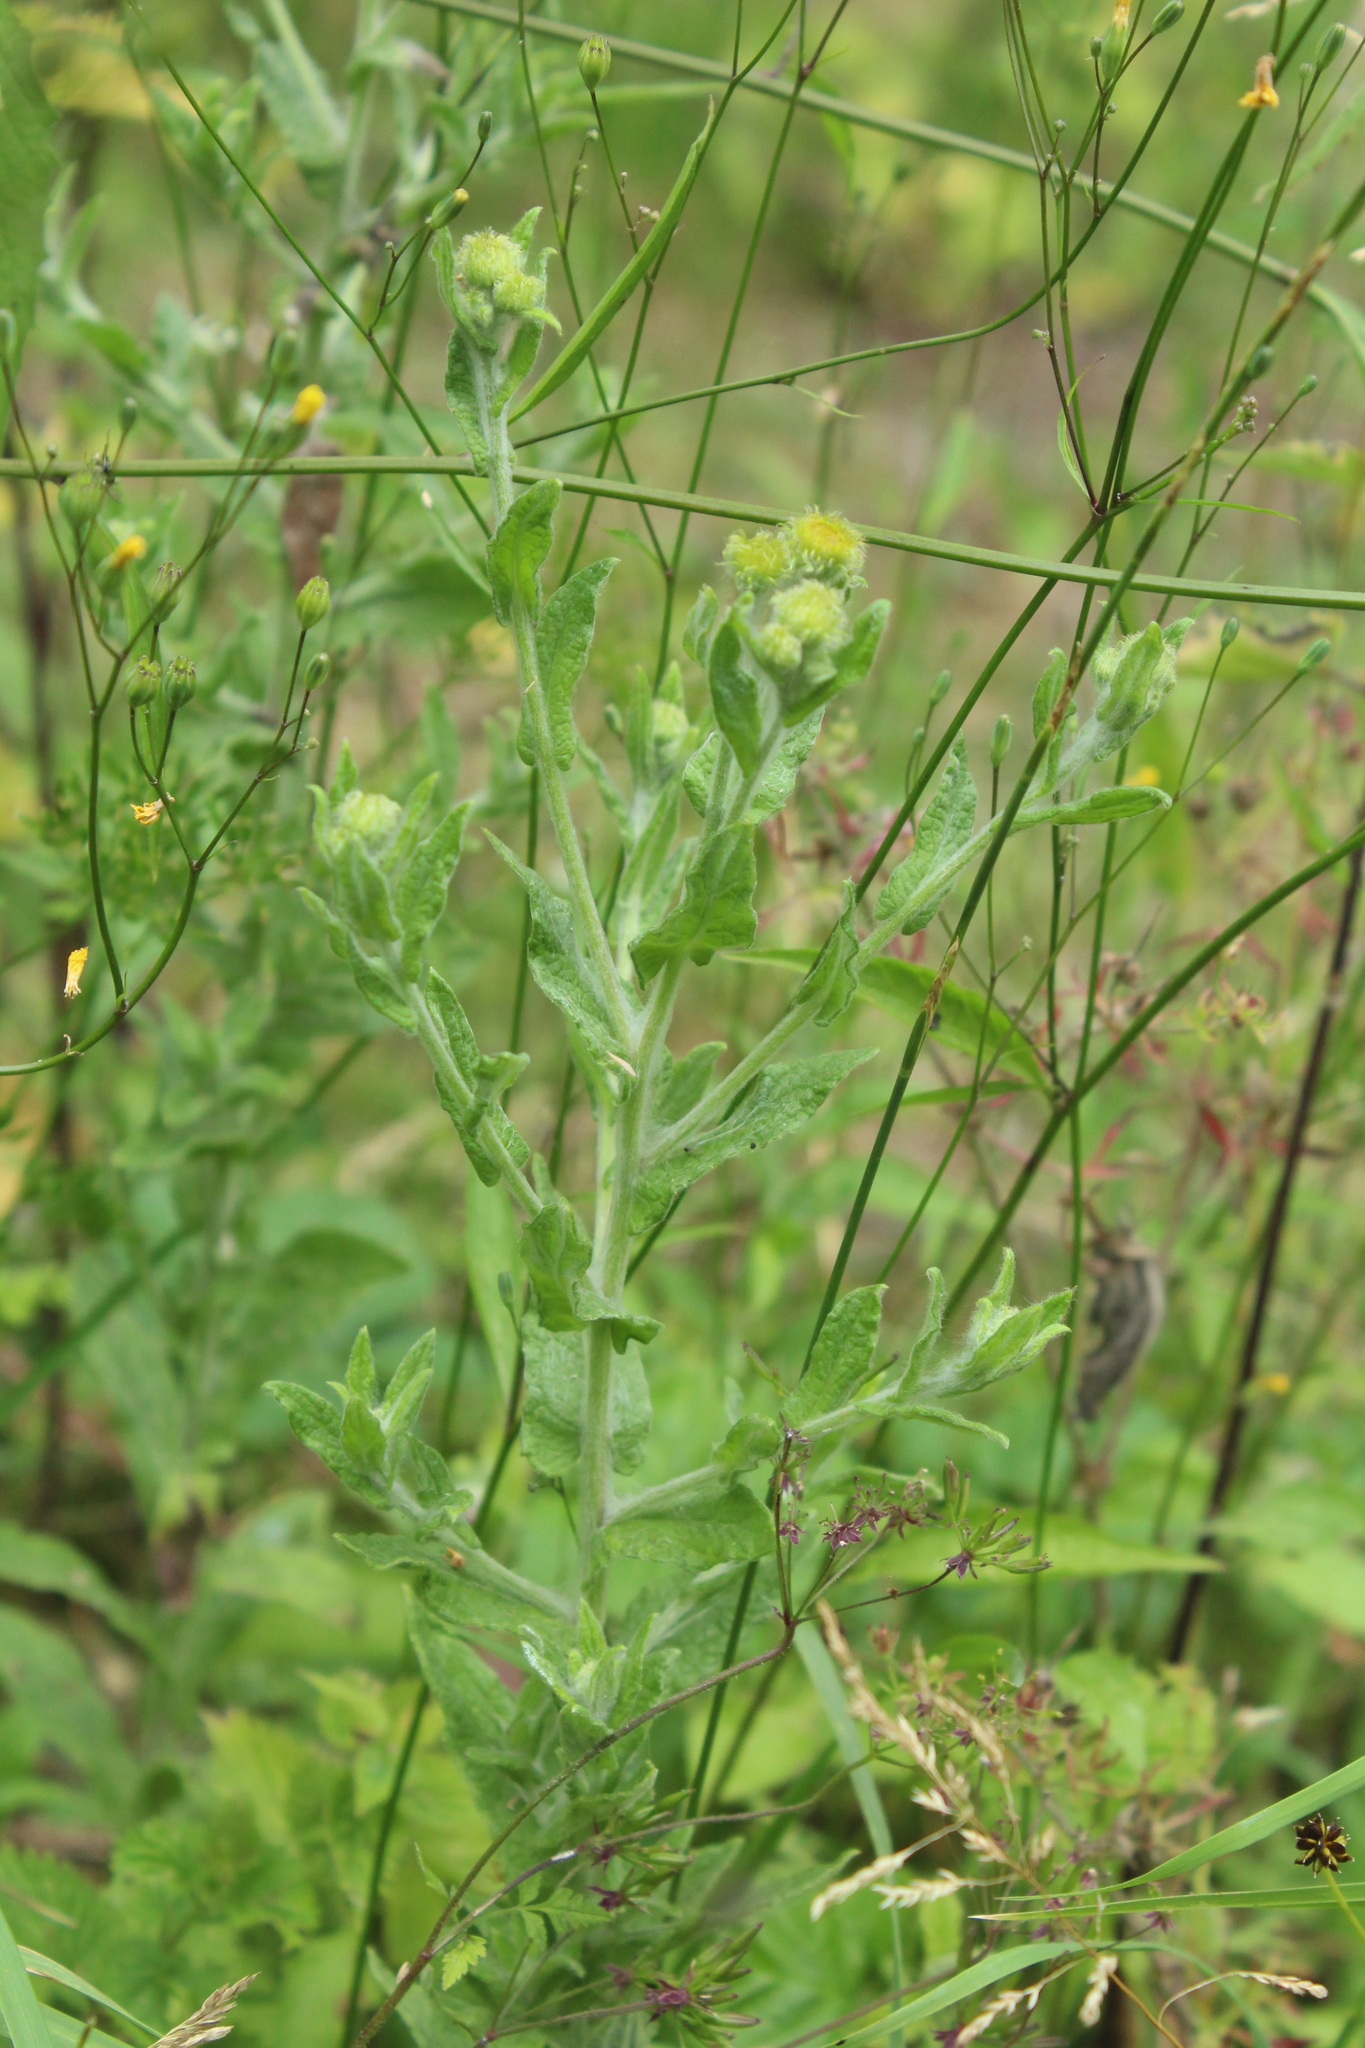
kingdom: Plantae
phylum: Tracheophyta
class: Magnoliopsida
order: Asterales
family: Asteraceae
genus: Pulicaria
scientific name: Pulicaria dysenterica
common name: Common fleabane
